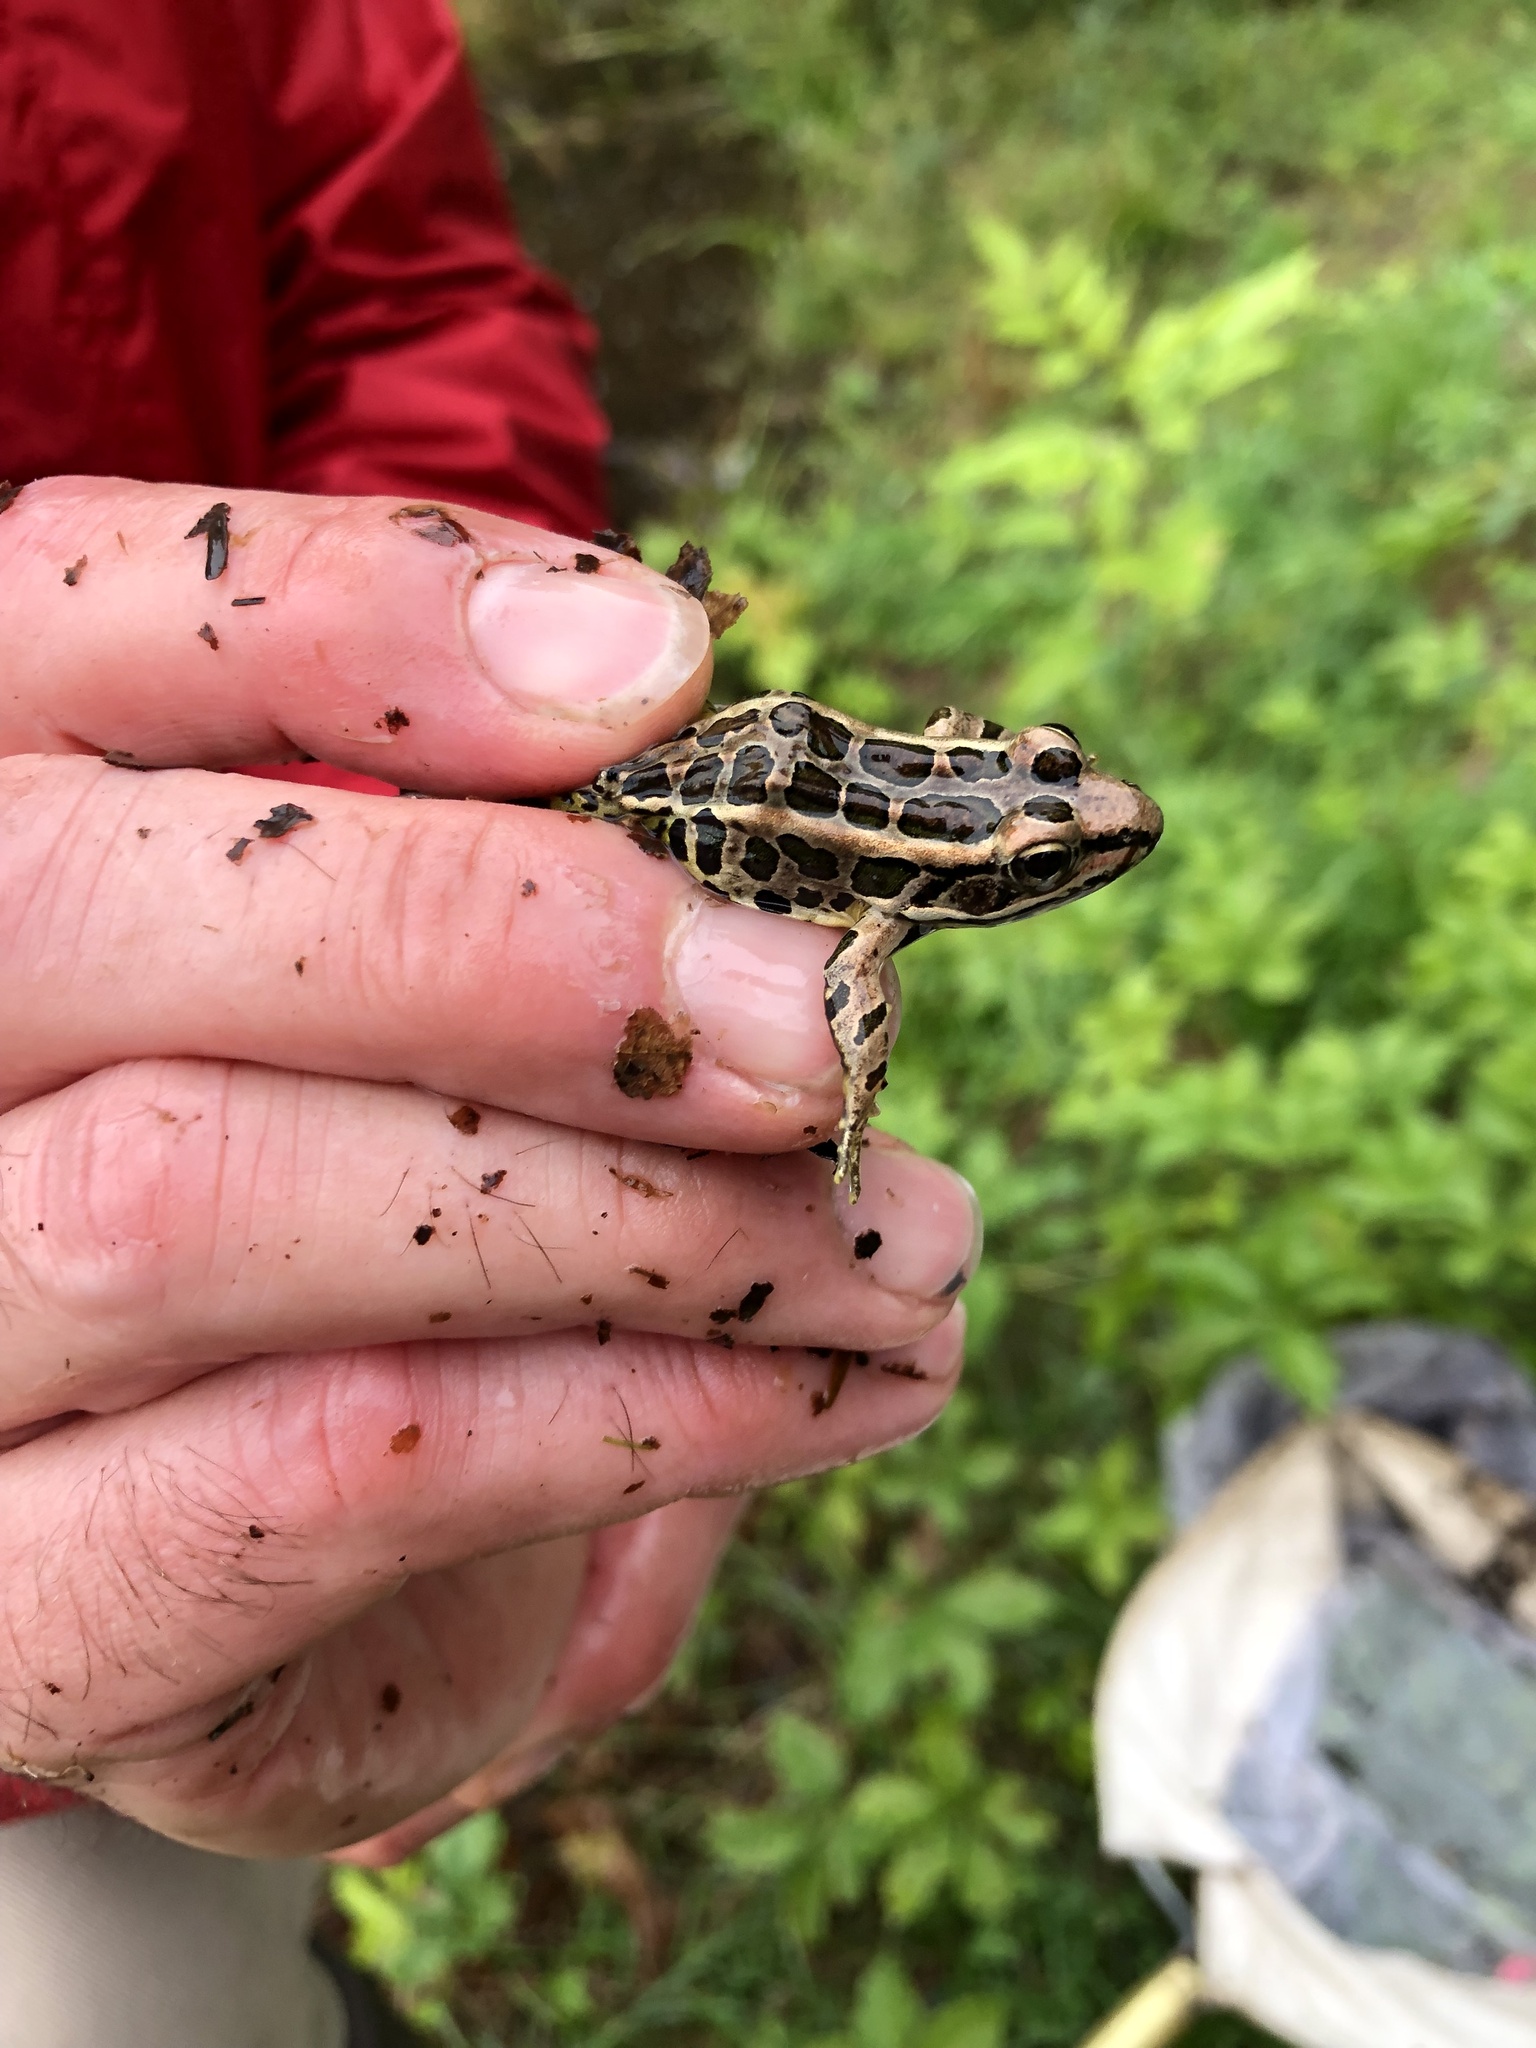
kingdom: Animalia
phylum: Chordata
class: Amphibia
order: Anura
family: Ranidae
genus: Lithobates
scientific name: Lithobates palustris
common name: Pickerel frog
